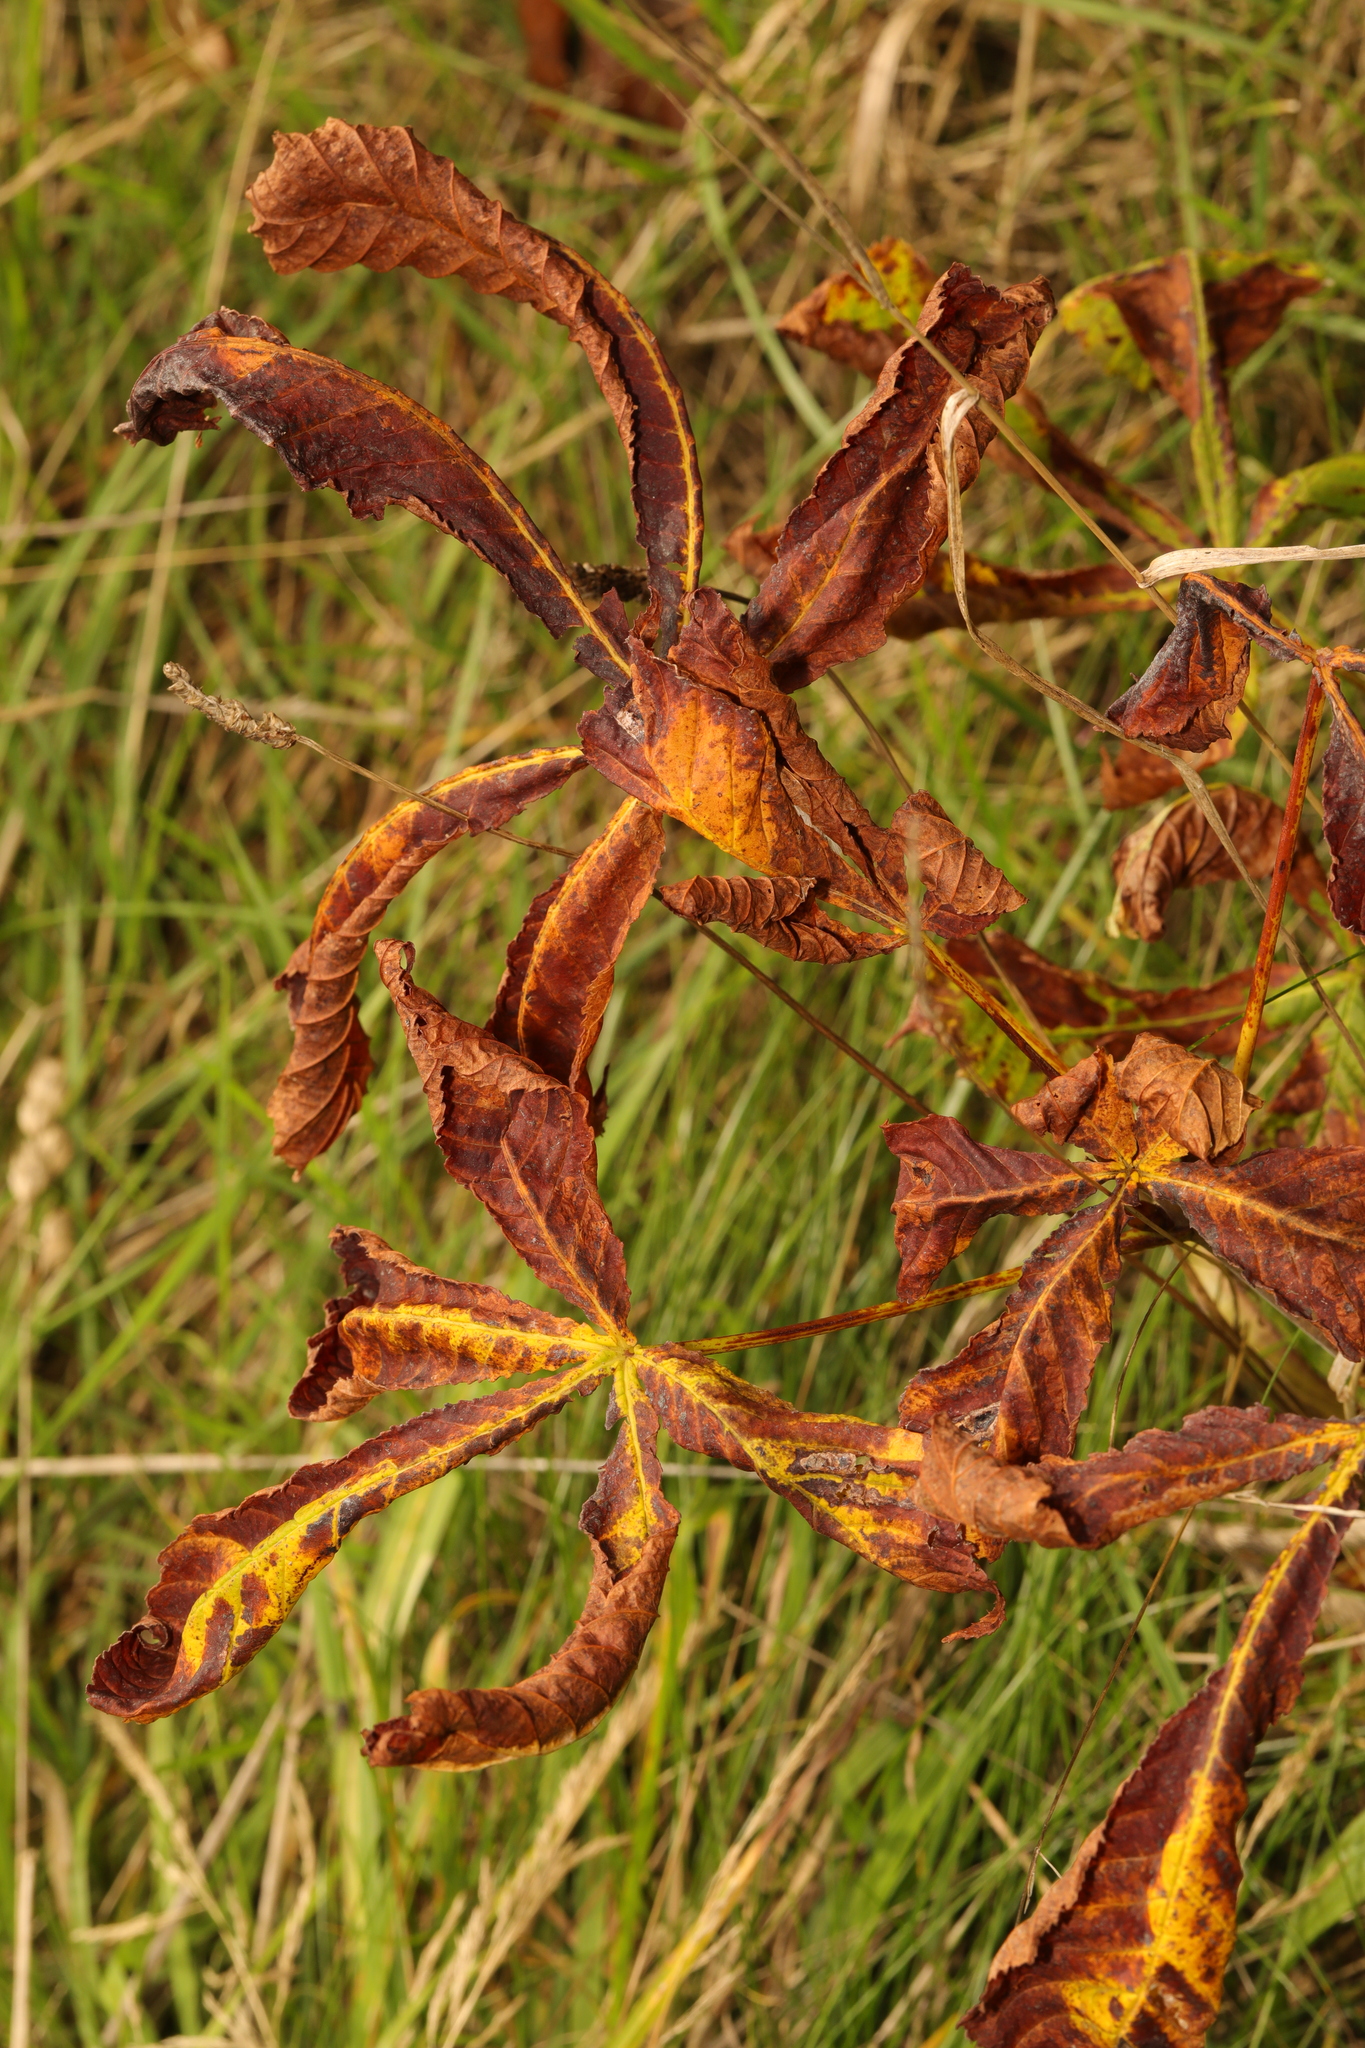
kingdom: Plantae
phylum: Tracheophyta
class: Magnoliopsida
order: Sapindales
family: Sapindaceae
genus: Aesculus
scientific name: Aesculus hippocastanum
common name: Horse-chestnut
